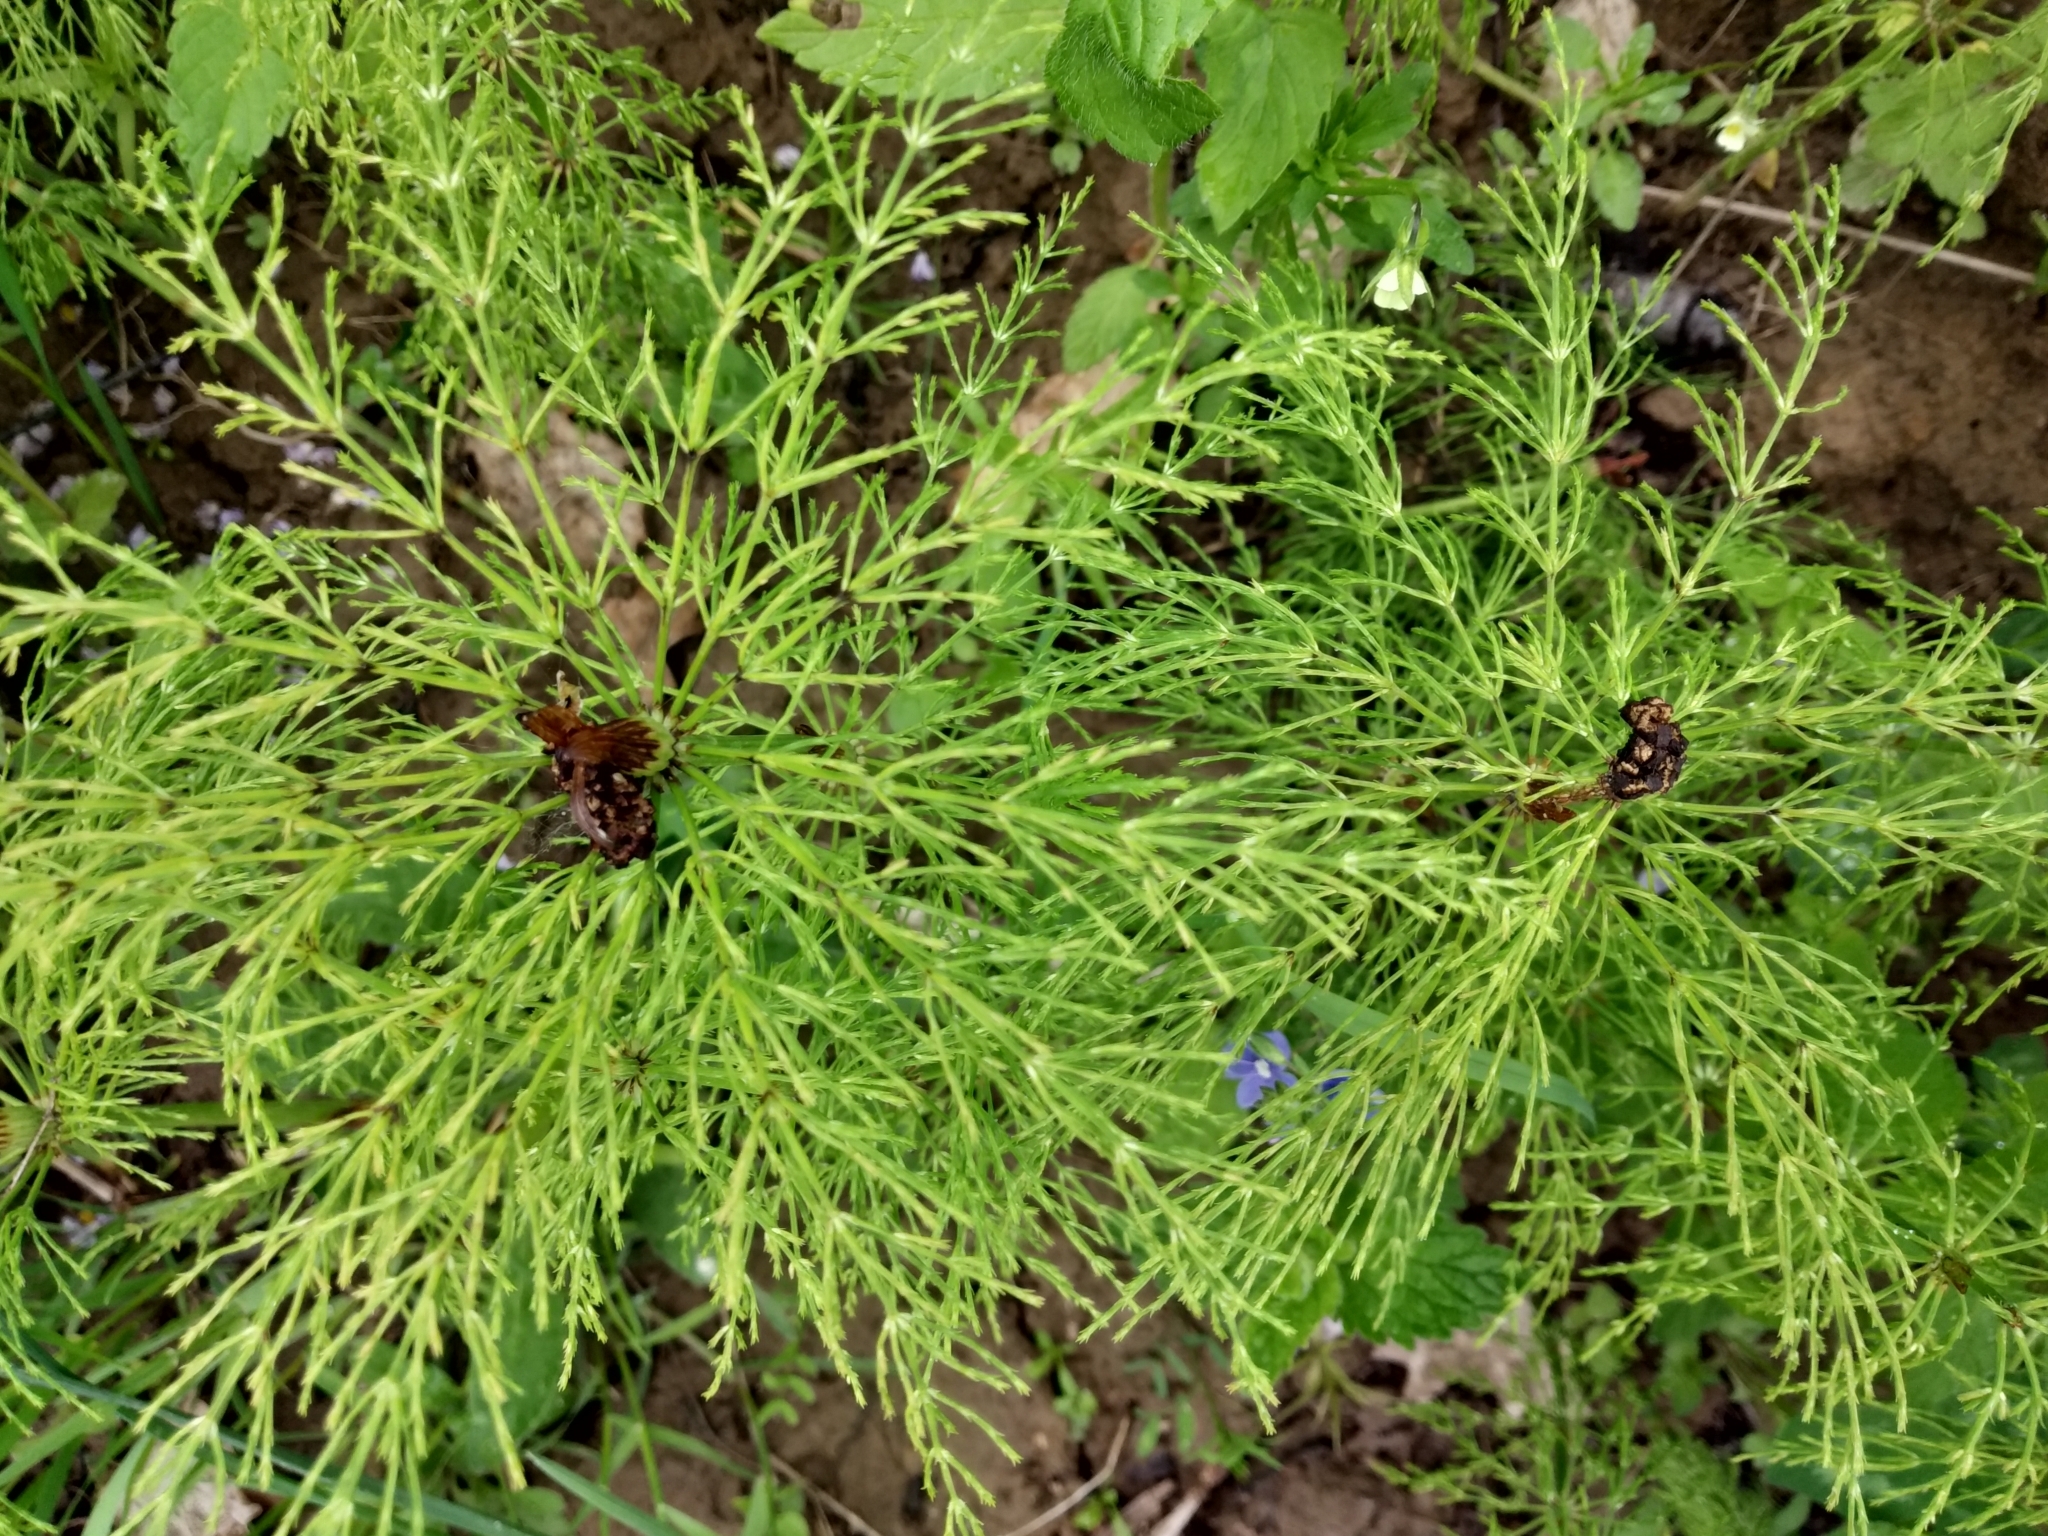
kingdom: Plantae
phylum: Tracheophyta
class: Polypodiopsida
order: Equisetales
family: Equisetaceae
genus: Equisetum
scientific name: Equisetum sylvaticum
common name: Wood horsetail
